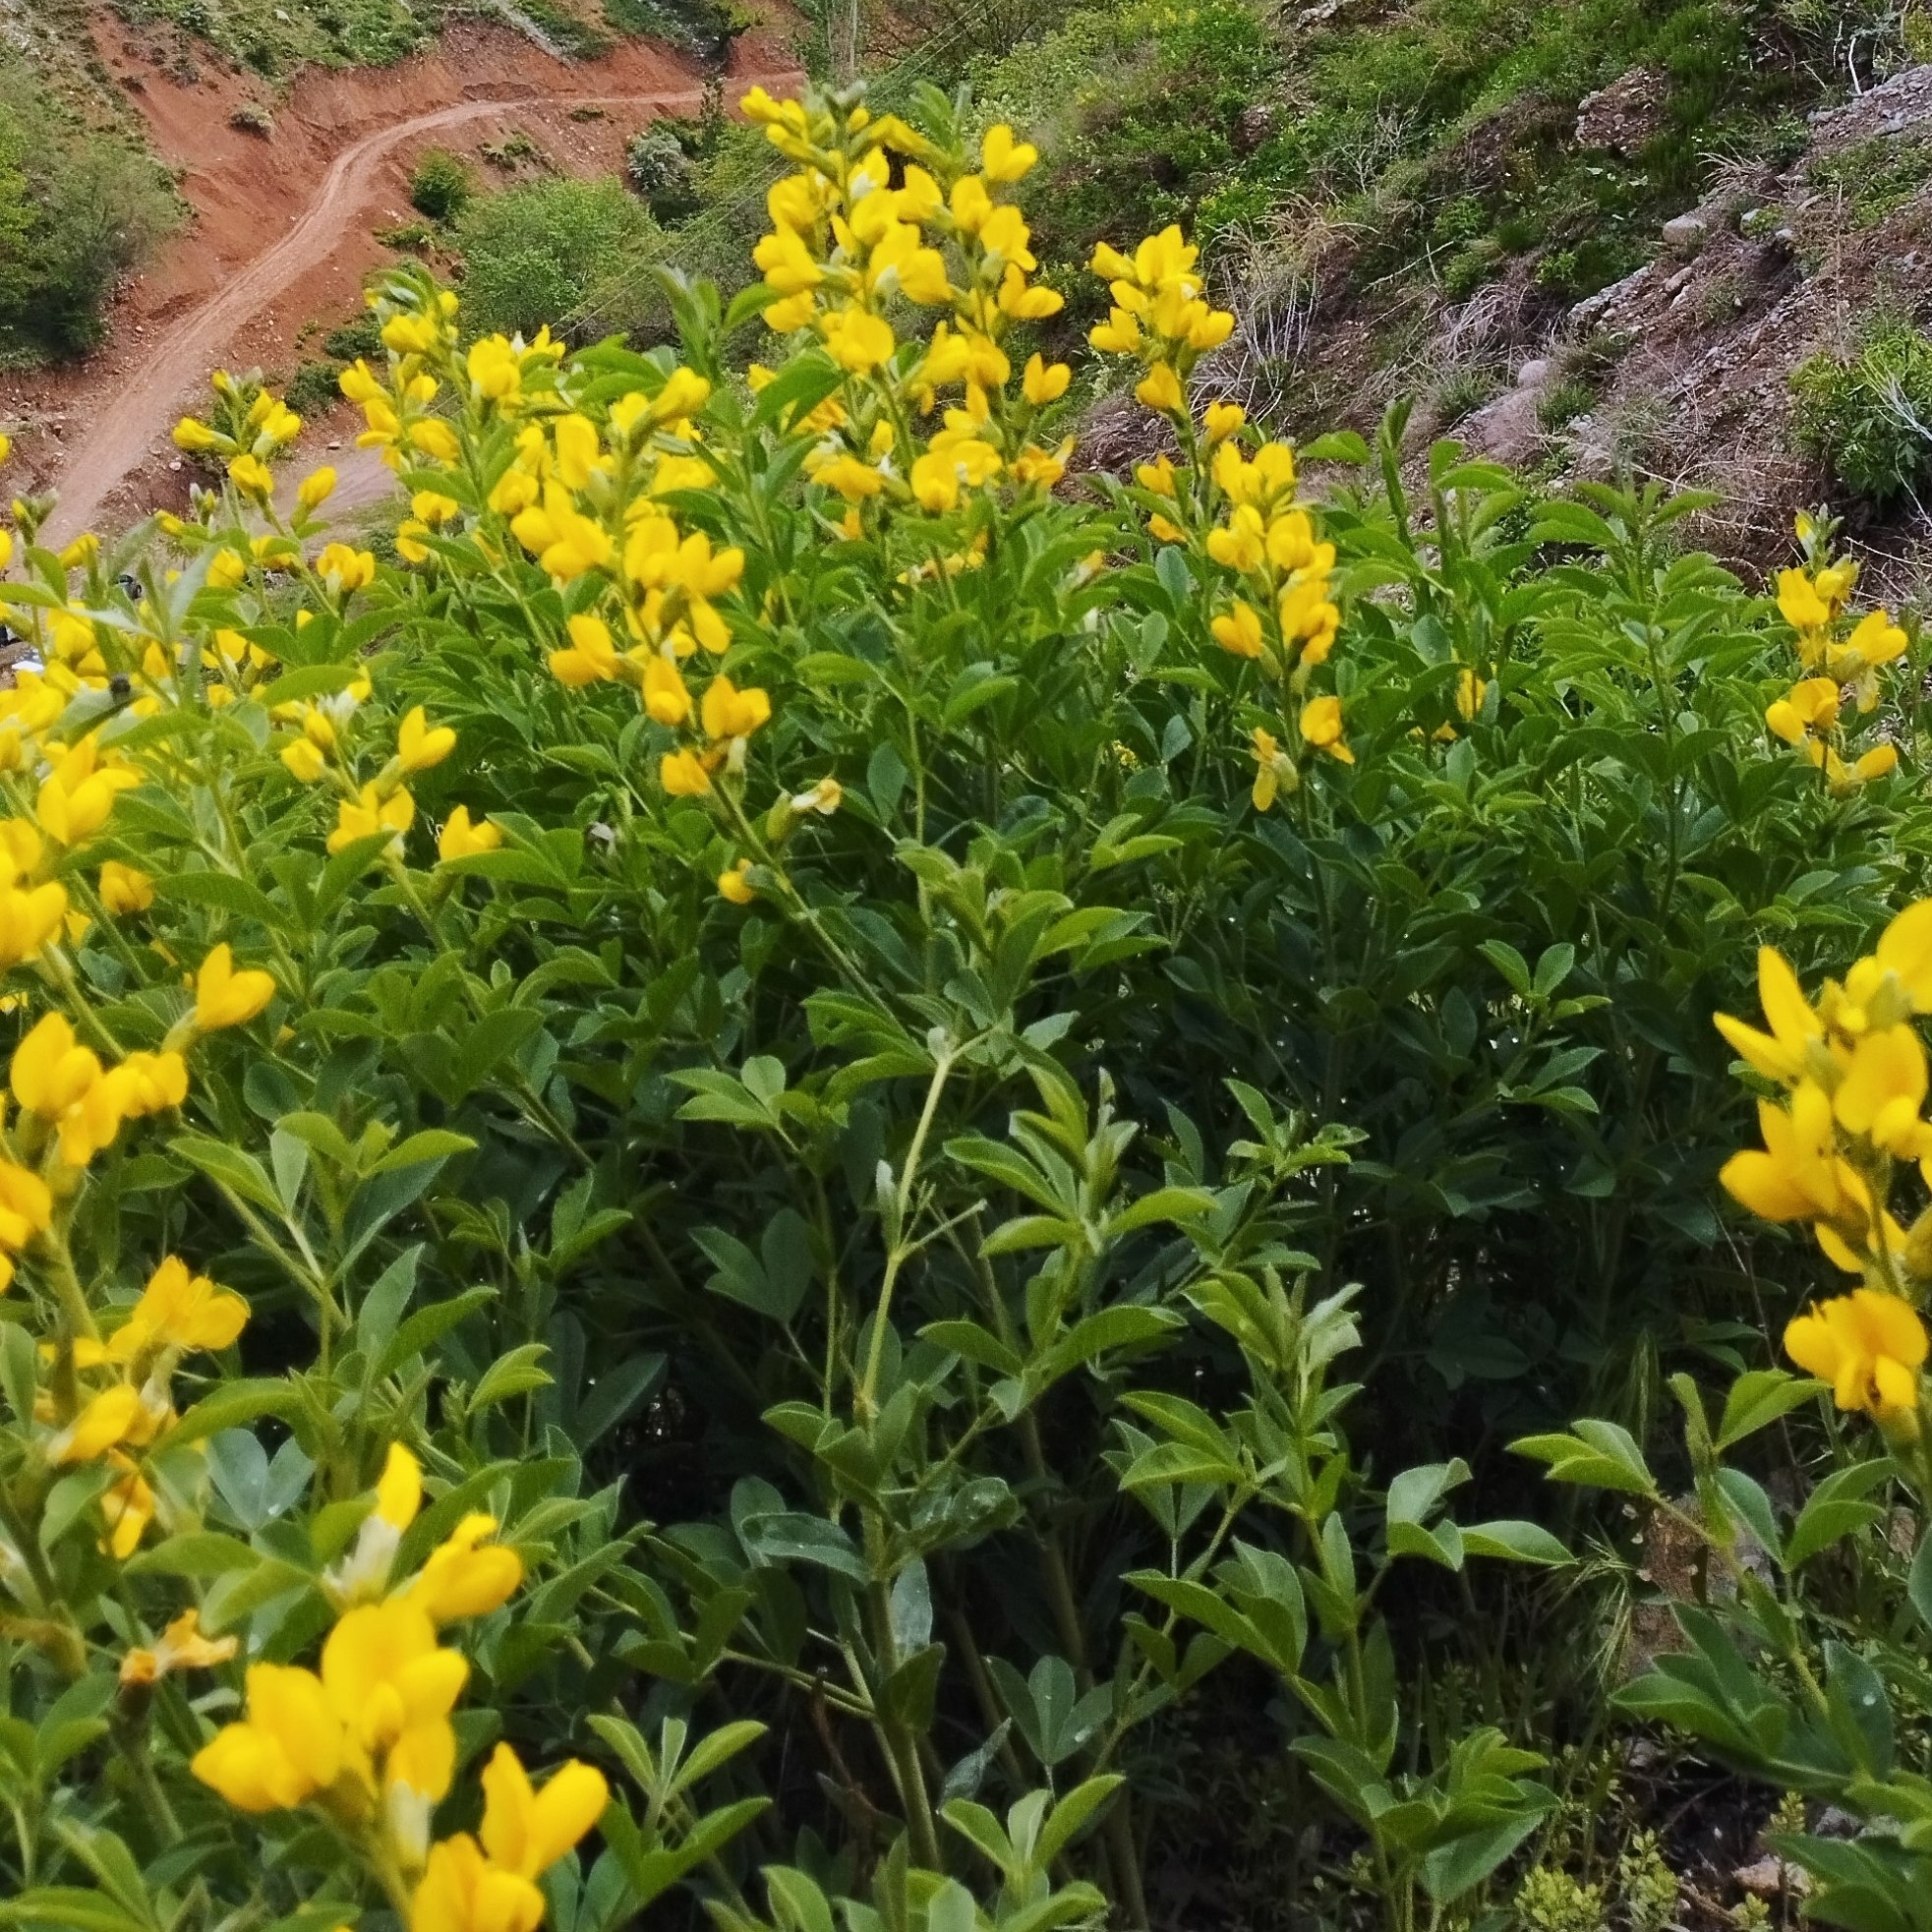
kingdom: Plantae
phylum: Tracheophyta
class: Magnoliopsida
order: Fabales
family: Fabaceae
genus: Thermopsis
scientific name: Thermopsis alterniflora
